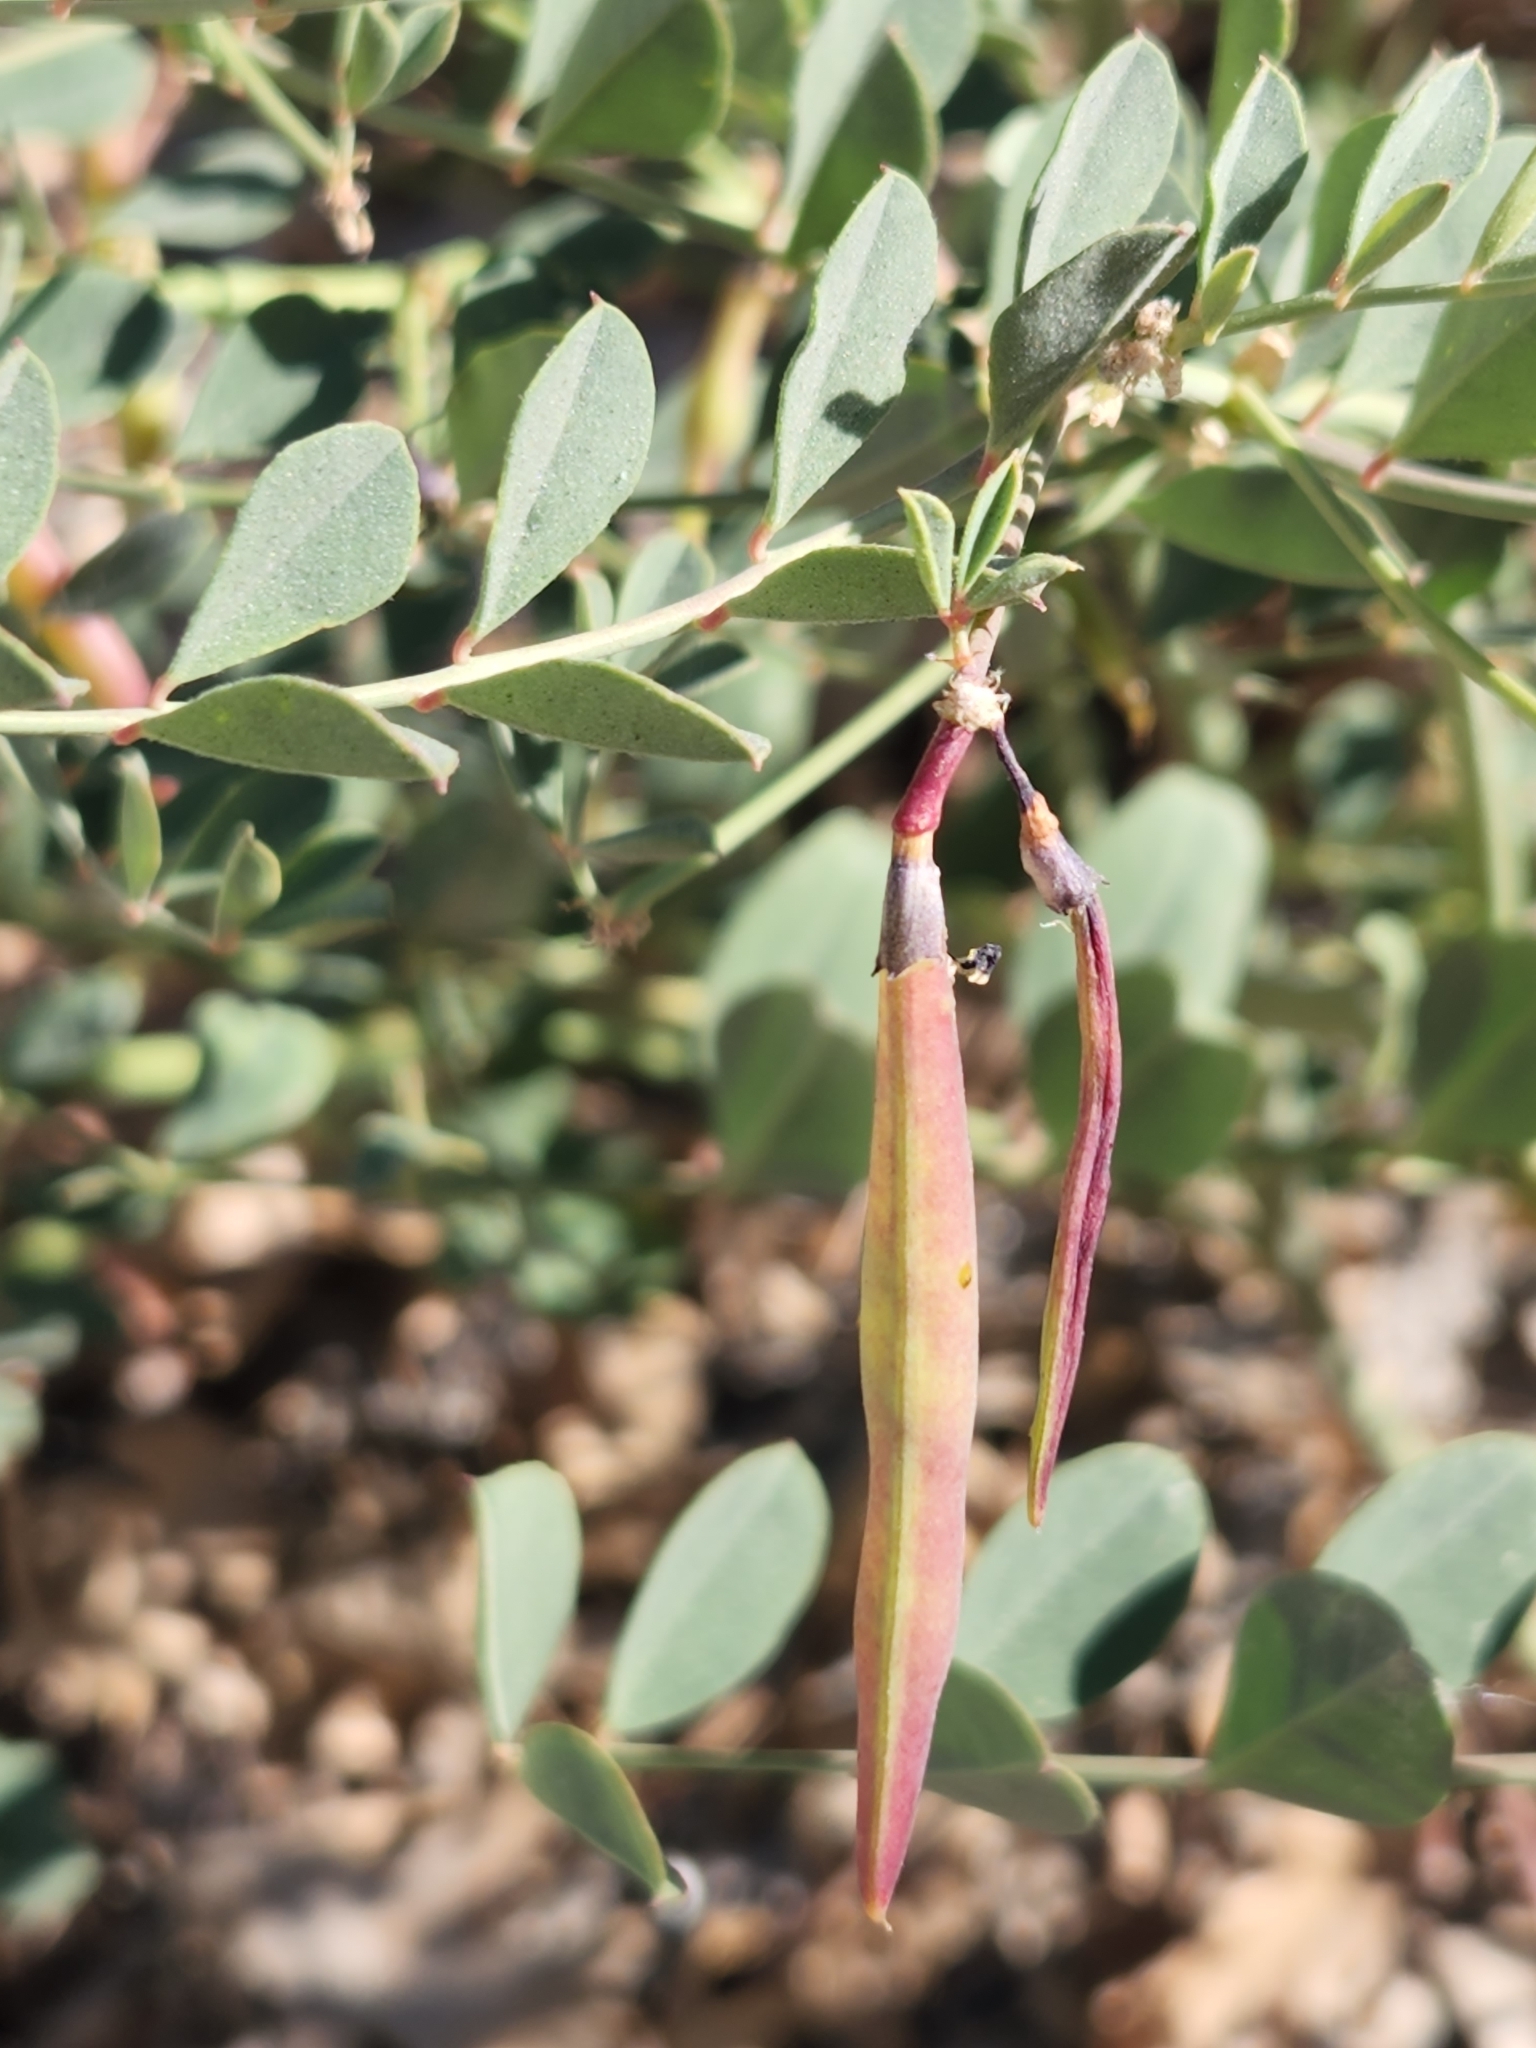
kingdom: Plantae
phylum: Tracheophyta
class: Magnoliopsida
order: Fabales
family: Fabaceae
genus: Hosackia
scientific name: Hosackia crassifolia
